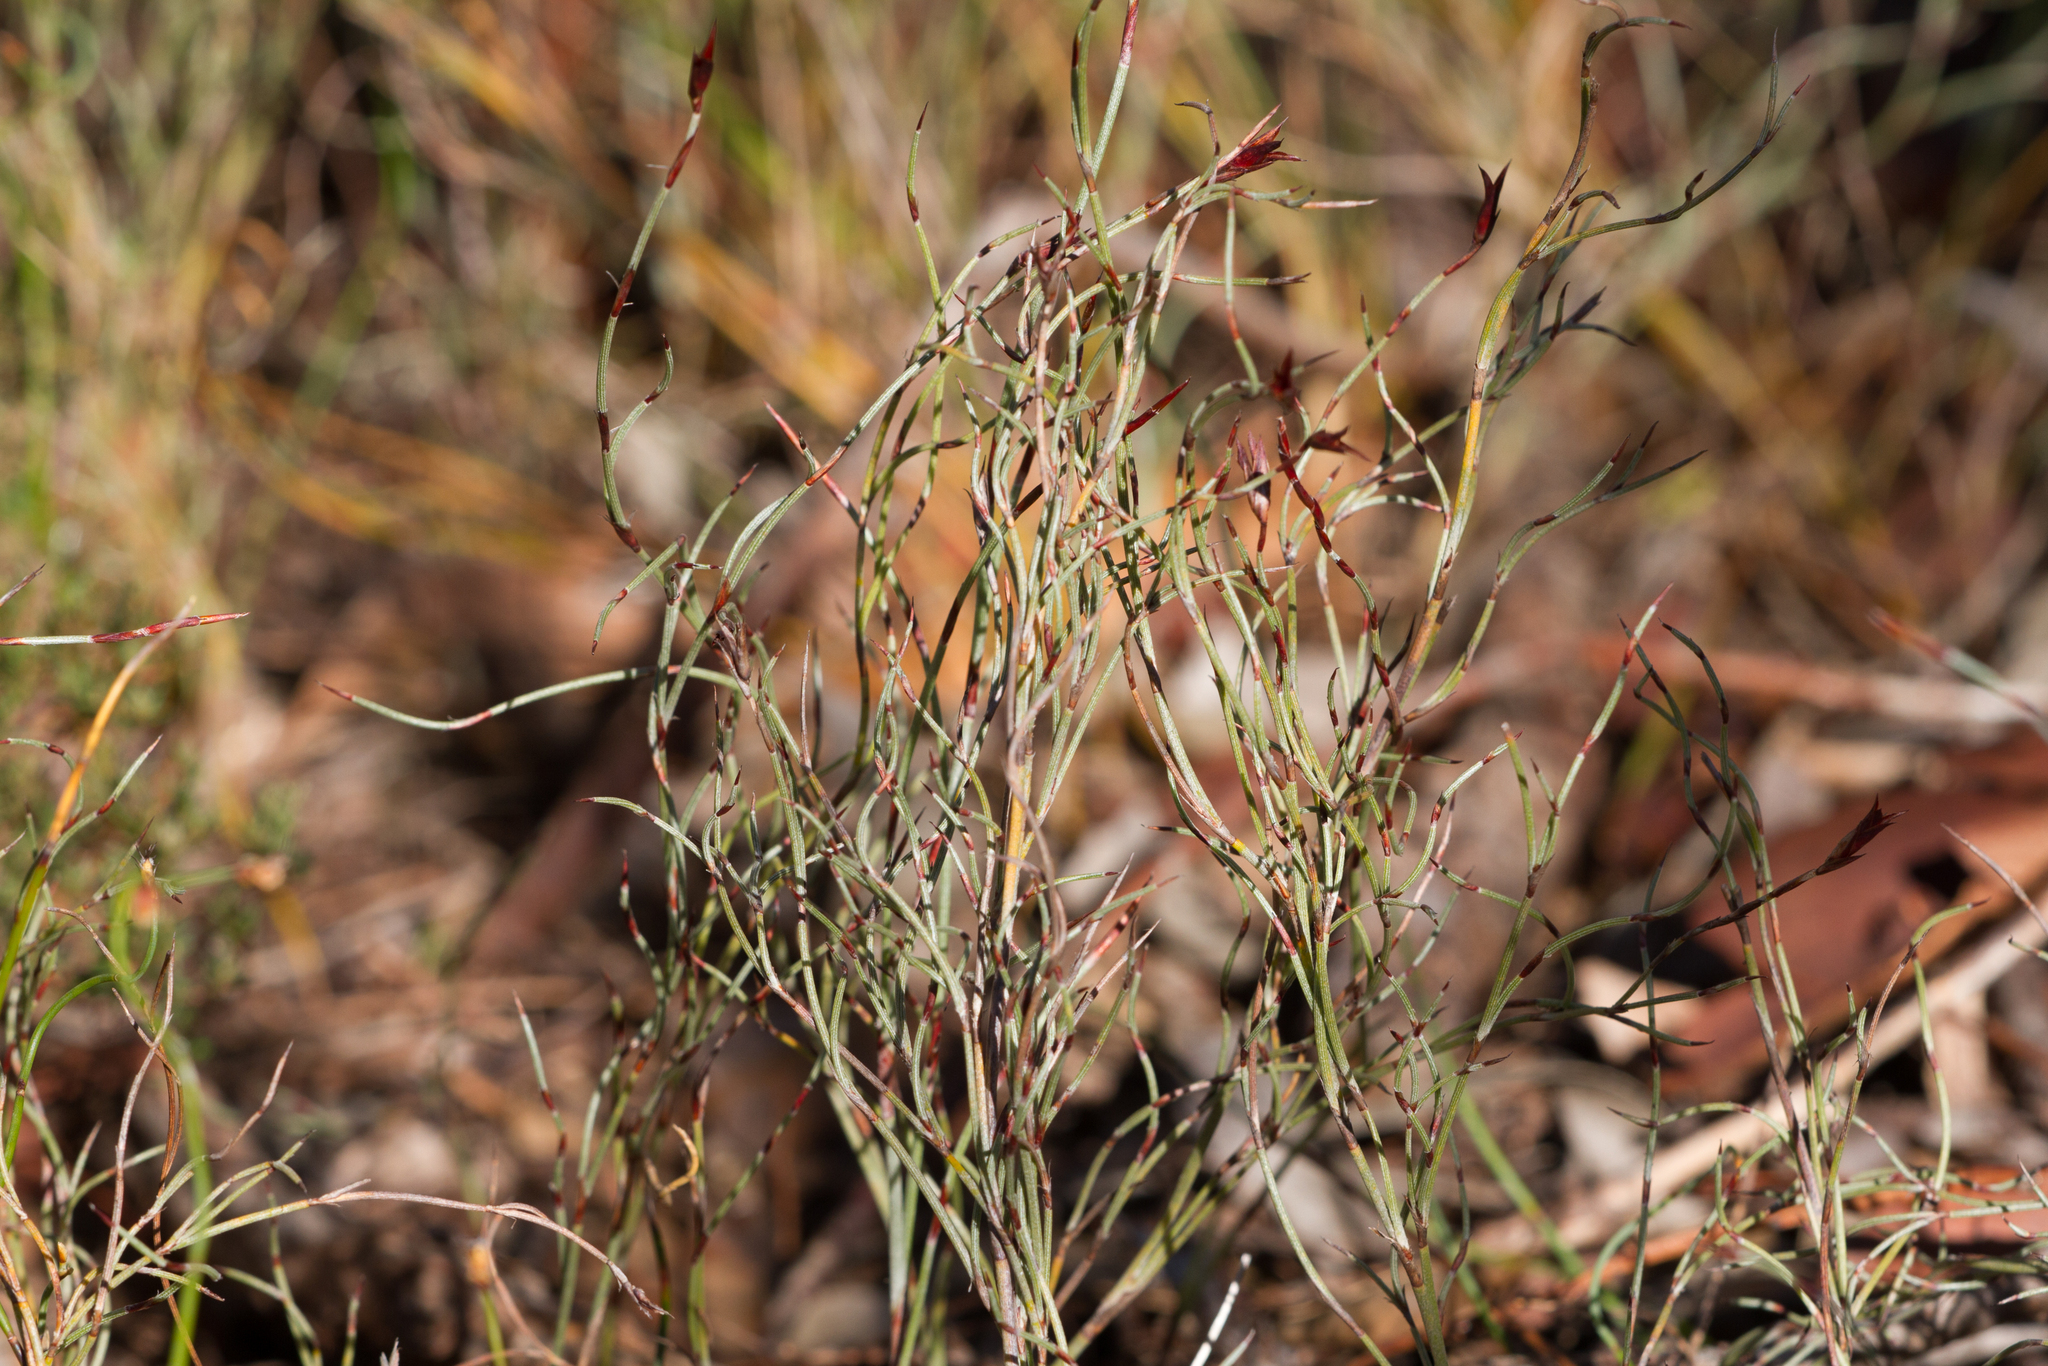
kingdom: Plantae
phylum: Tracheophyta
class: Liliopsida
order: Poales
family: Restionaceae
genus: Hypolaena
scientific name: Hypolaena fastigiata
